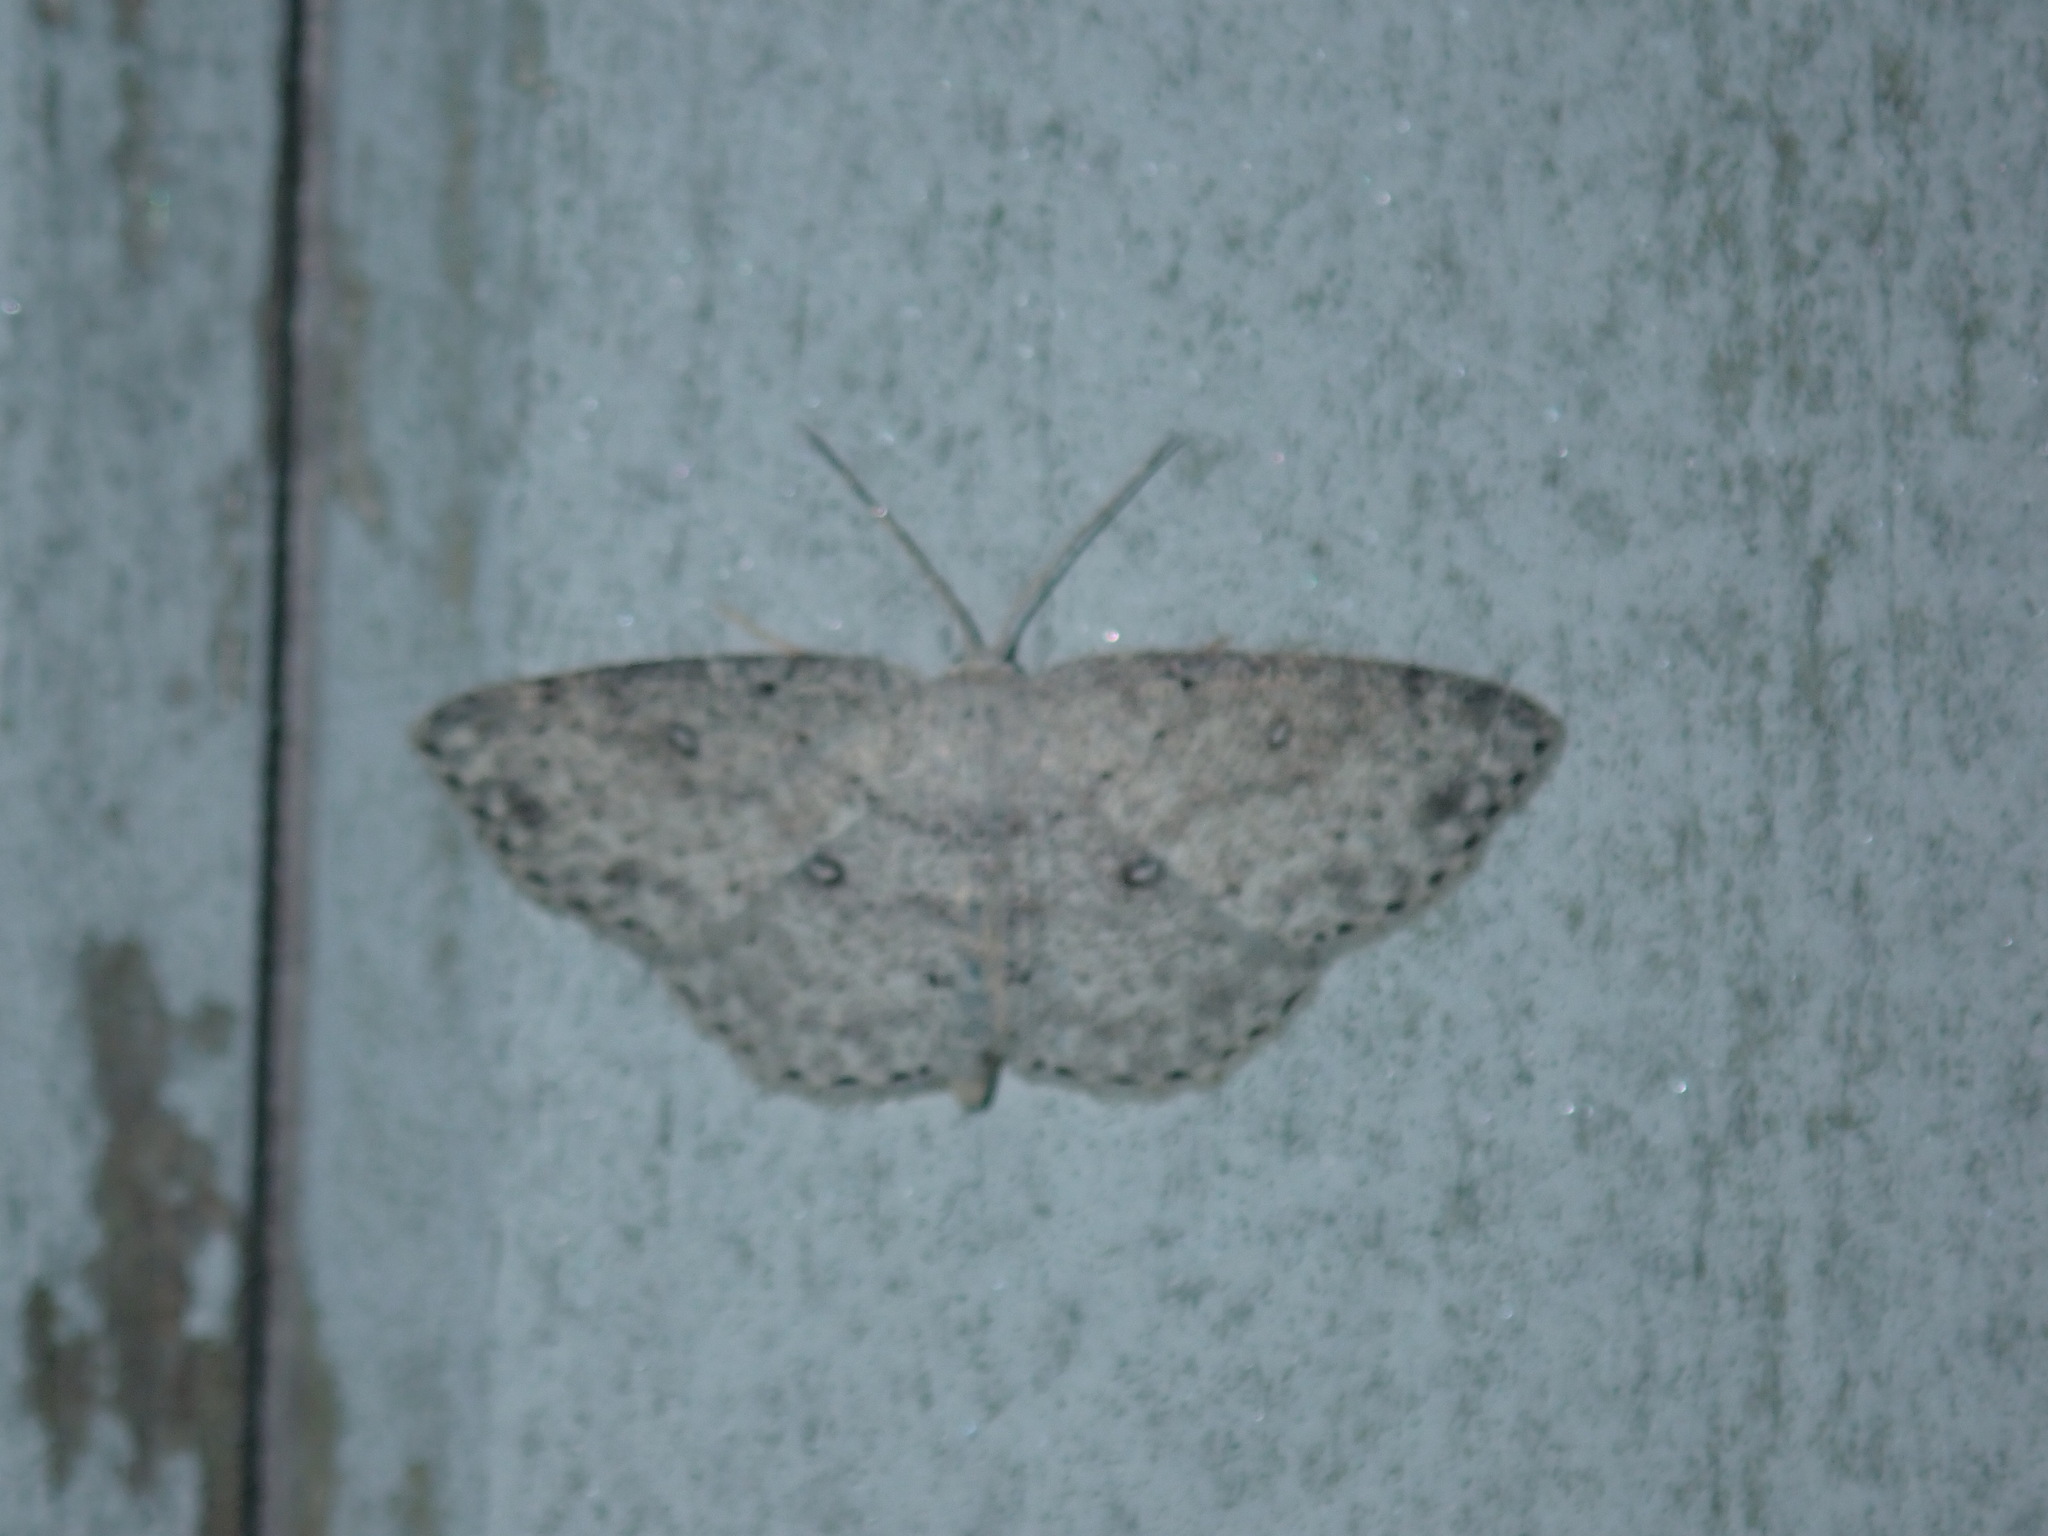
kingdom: Animalia
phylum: Arthropoda
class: Insecta
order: Lepidoptera
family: Geometridae
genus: Cyclophora
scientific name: Cyclophora pendulinaria
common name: Sweet fern geometer
